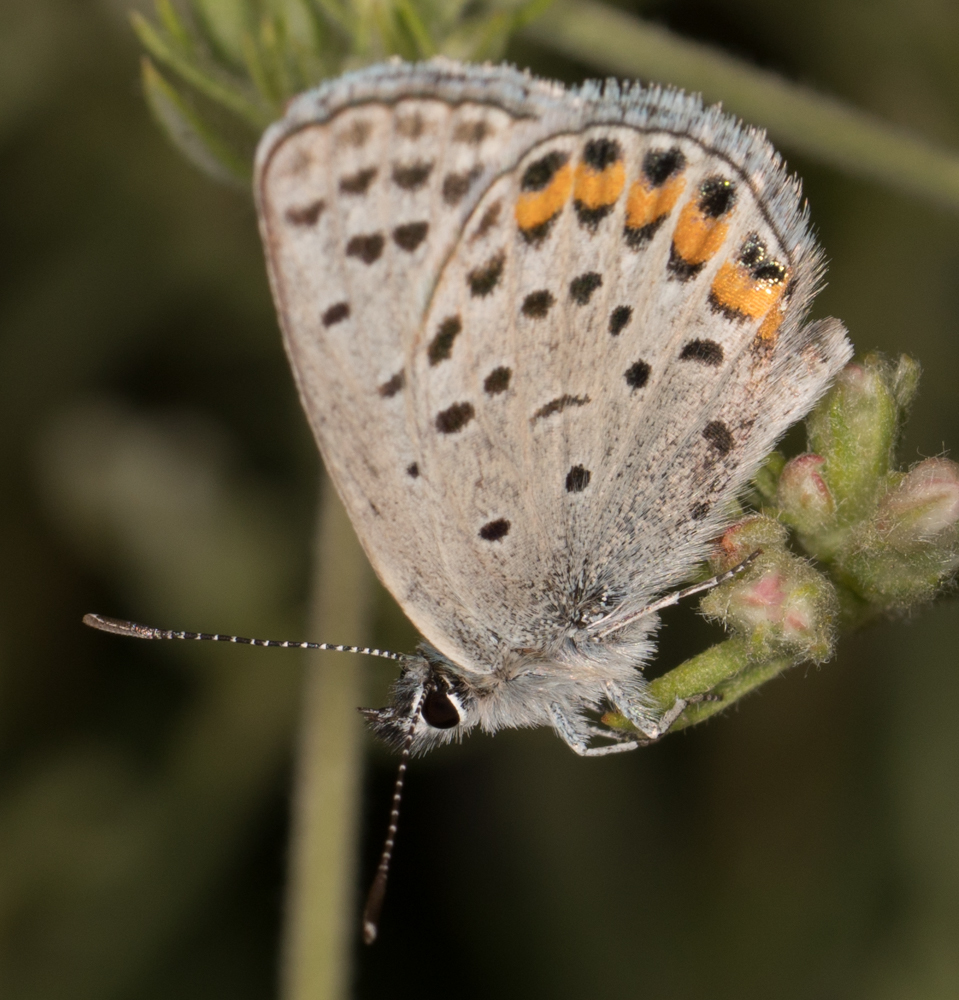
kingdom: Animalia
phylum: Arthropoda
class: Insecta
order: Lepidoptera
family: Lycaenidae
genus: Icaricia
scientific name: Icaricia acmon
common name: Acmon blue
